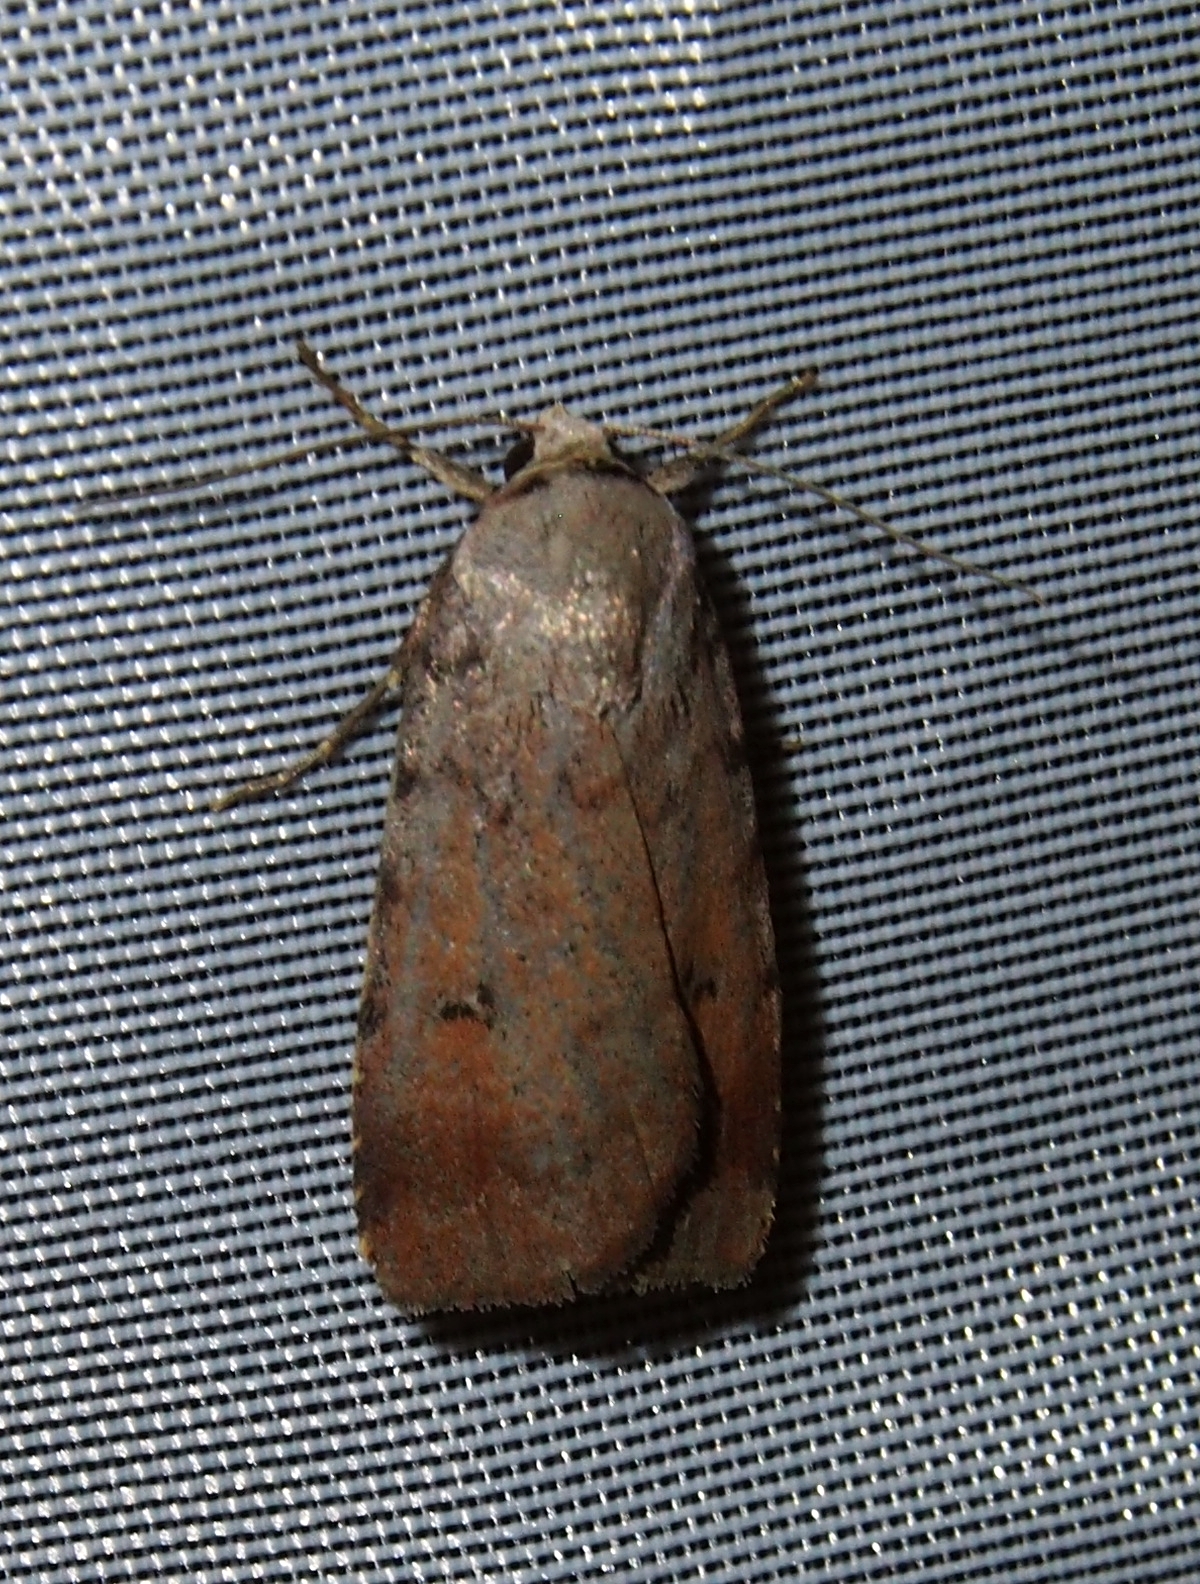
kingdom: Animalia
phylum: Arthropoda
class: Insecta
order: Lepidoptera
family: Noctuidae
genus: Anicla
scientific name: Anicla illapsa
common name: Snowy dart
